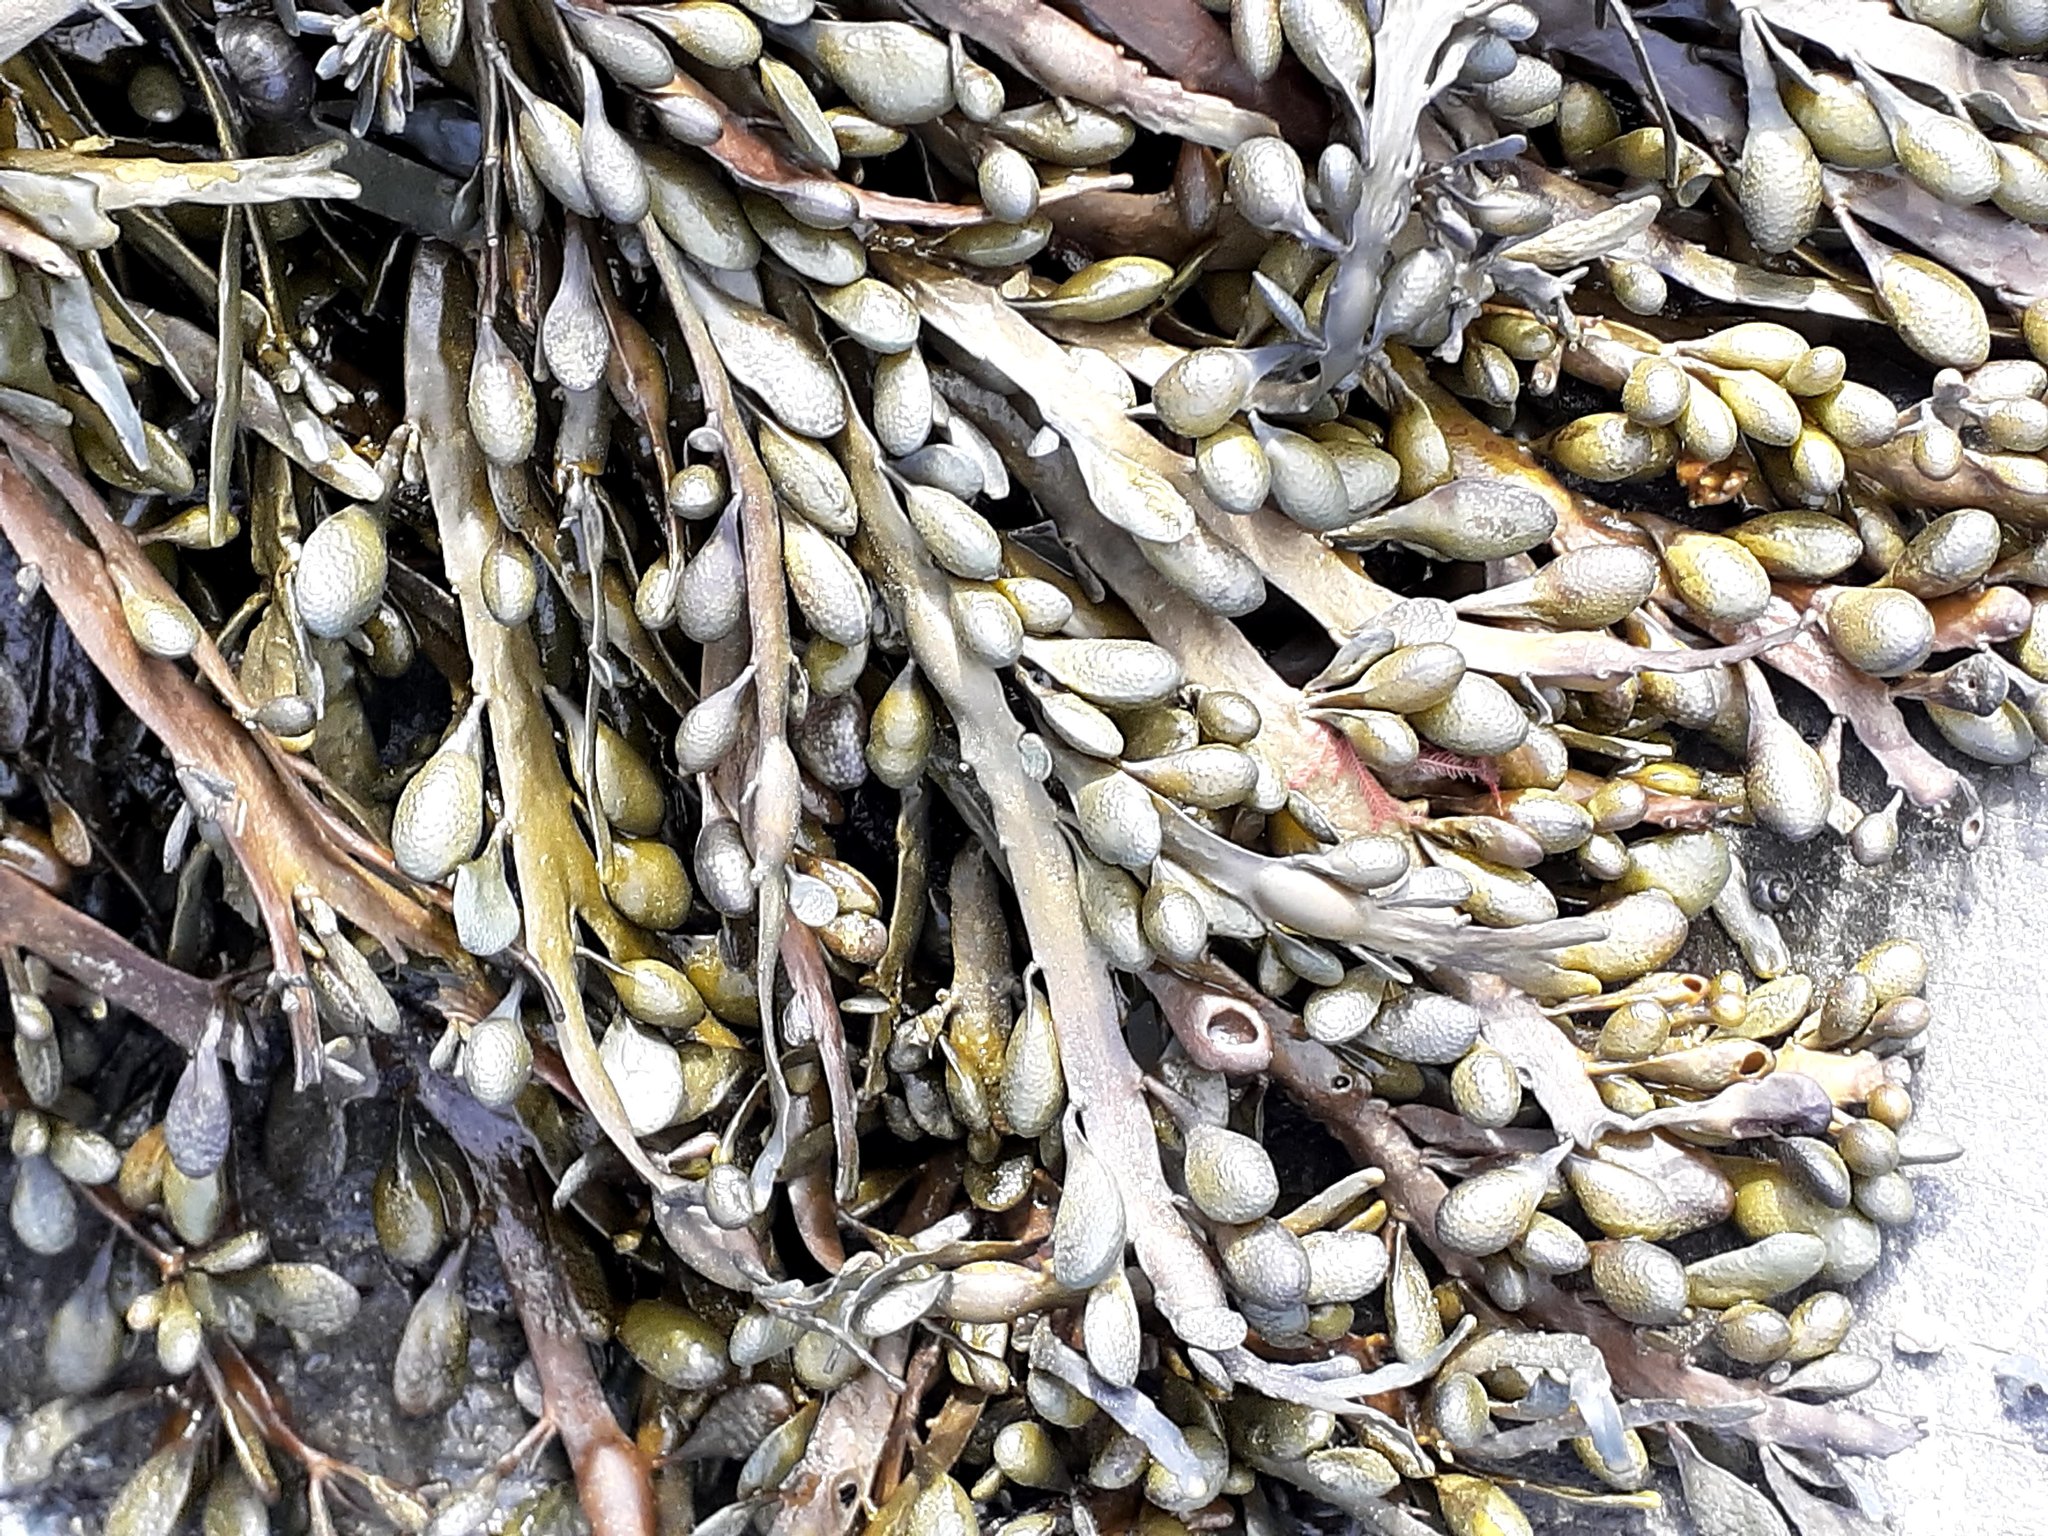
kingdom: Chromista
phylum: Ochrophyta
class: Phaeophyceae
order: Fucales
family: Fucaceae
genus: Ascophyllum
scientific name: Ascophyllum nodosum
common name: Knotted wrack
